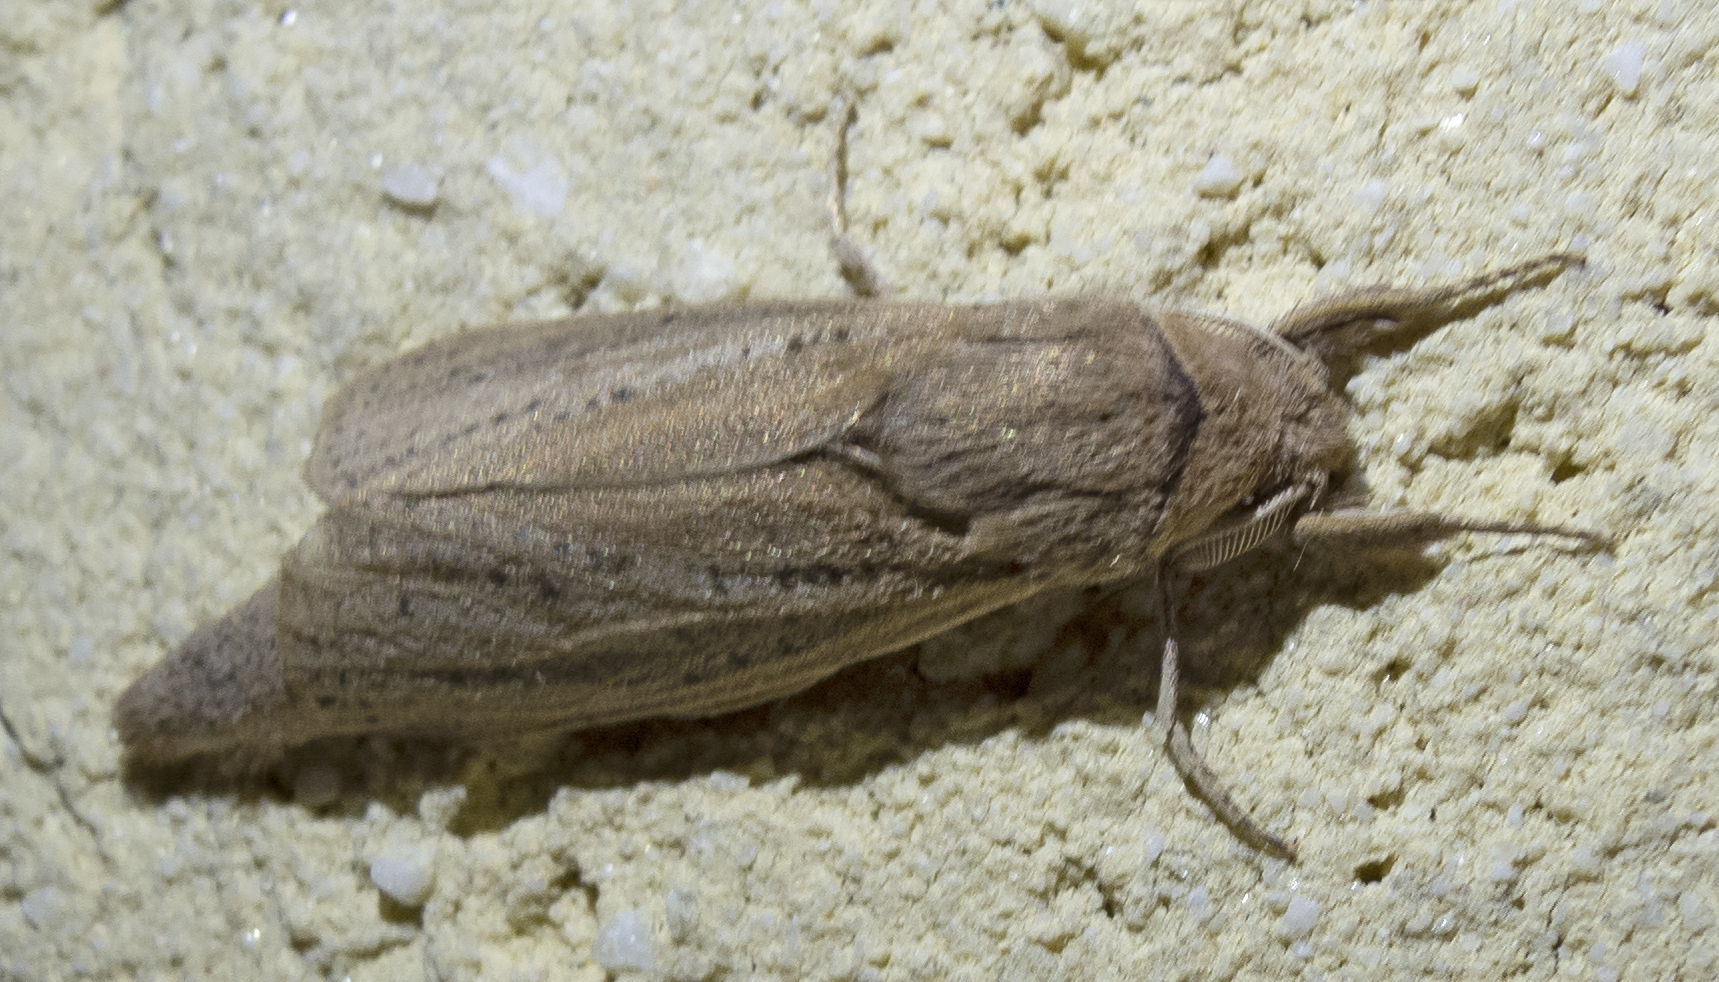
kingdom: Animalia
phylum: Arthropoda
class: Insecta
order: Lepidoptera
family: Cossidae
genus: Phragmataecia
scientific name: Phragmataecia castaneae
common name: Reed leopard
